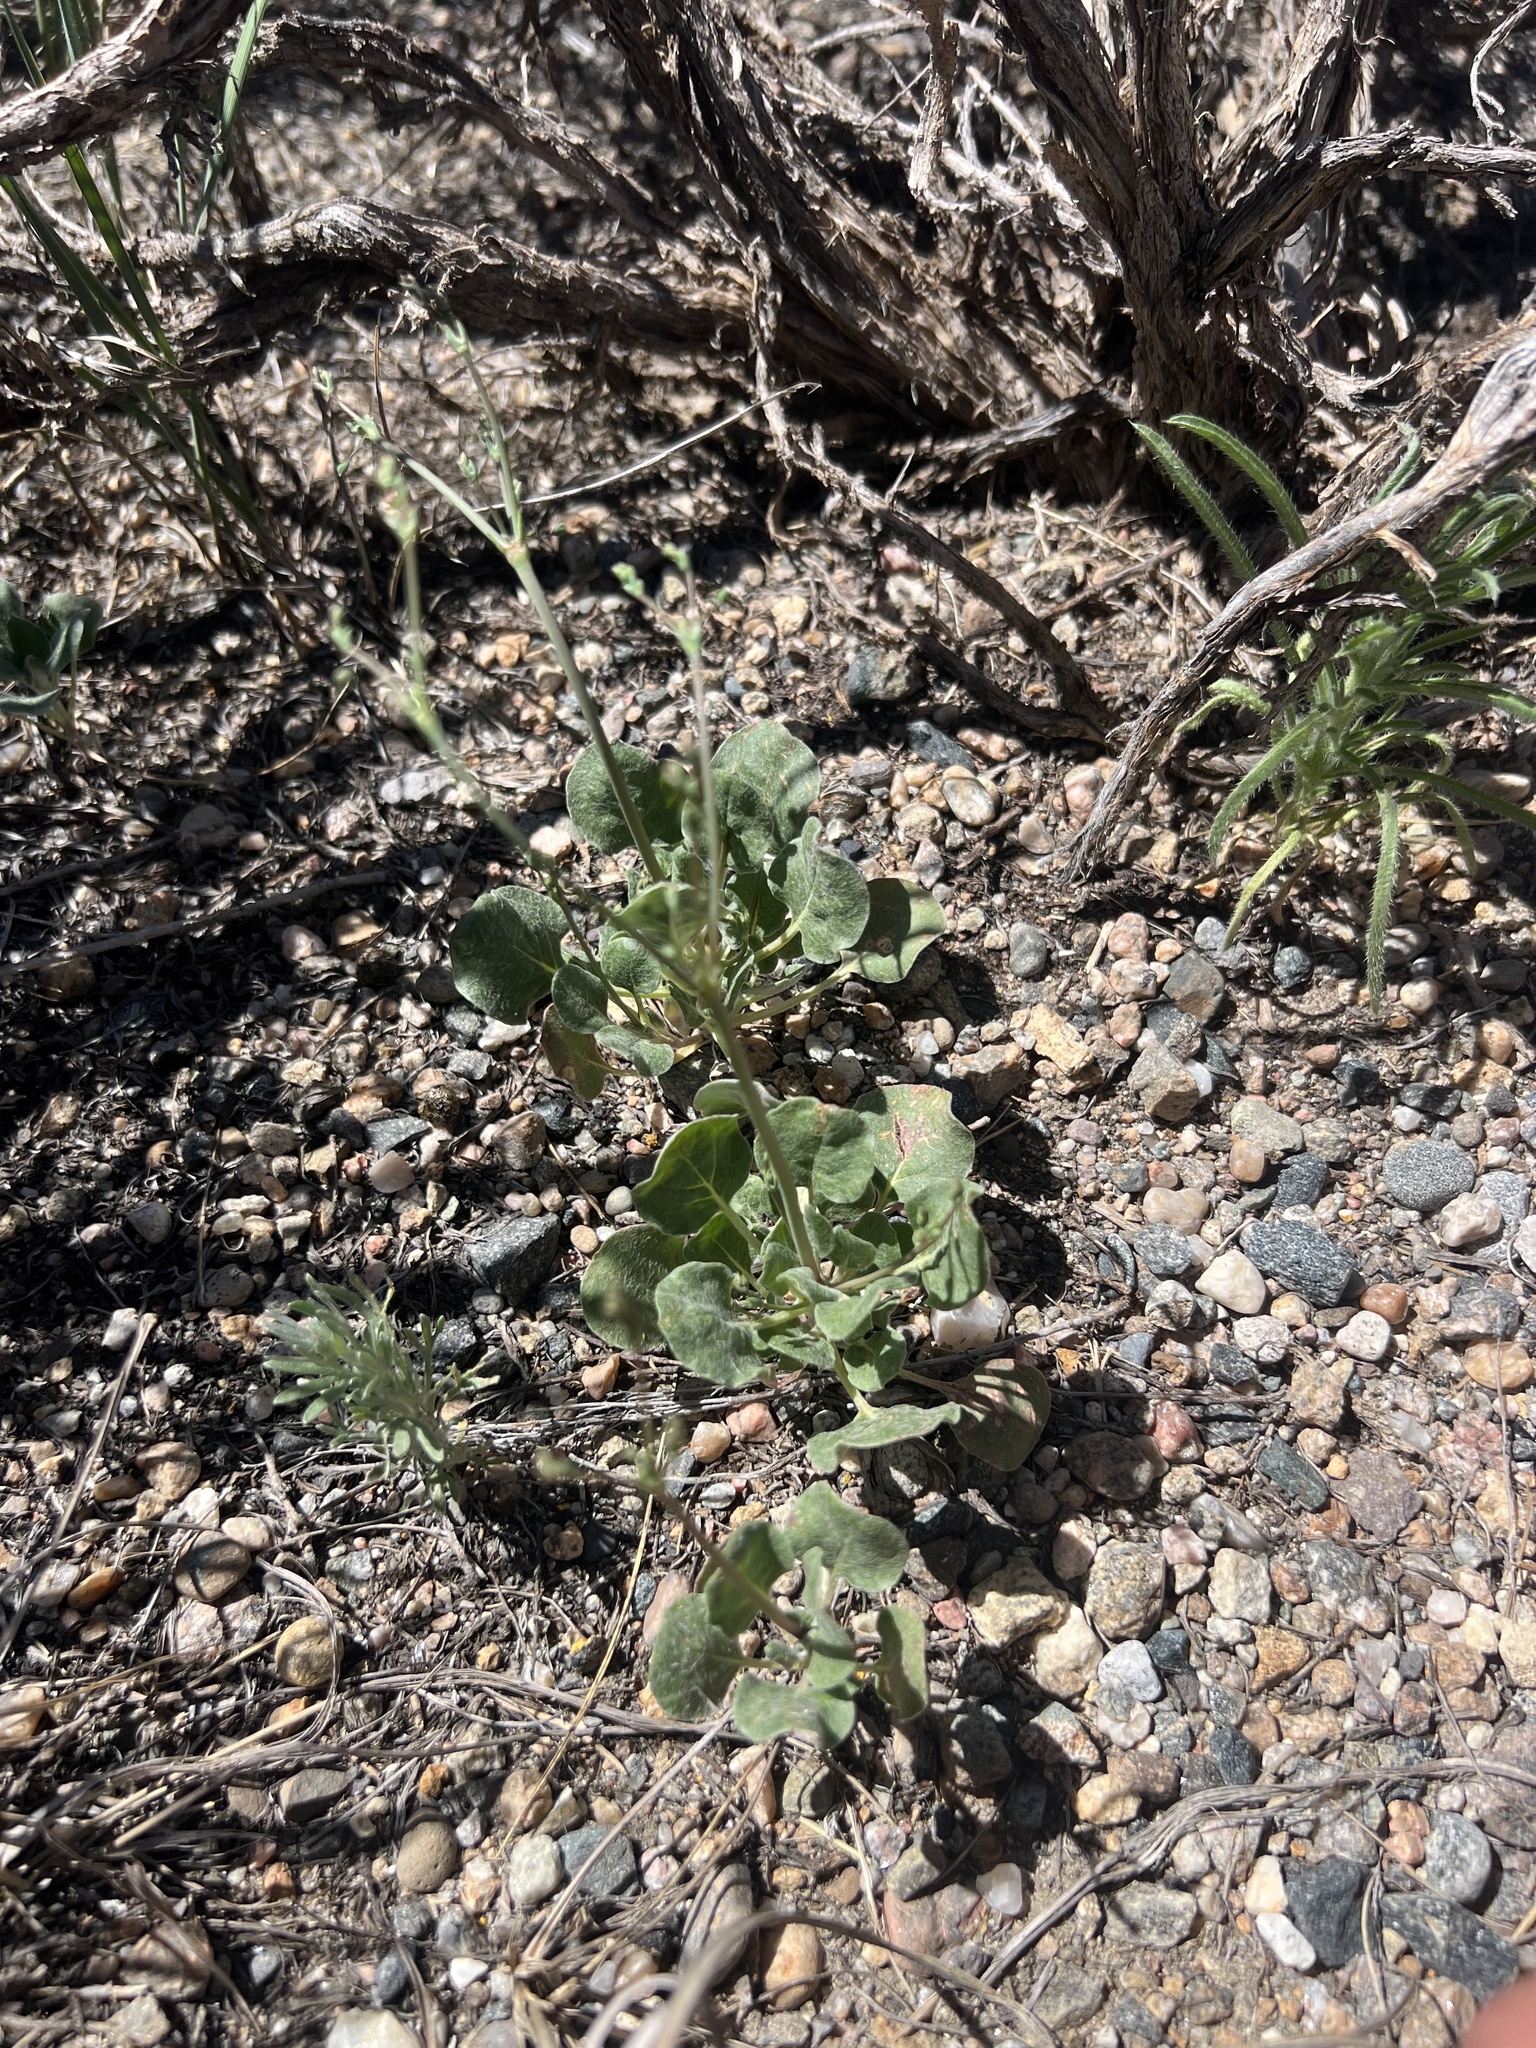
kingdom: Plantae
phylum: Tracheophyta
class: Magnoliopsida
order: Caryophyllales
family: Polygonaceae
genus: Eriogonum
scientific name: Eriogonum cernuum
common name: Nodding wild buckwheat
